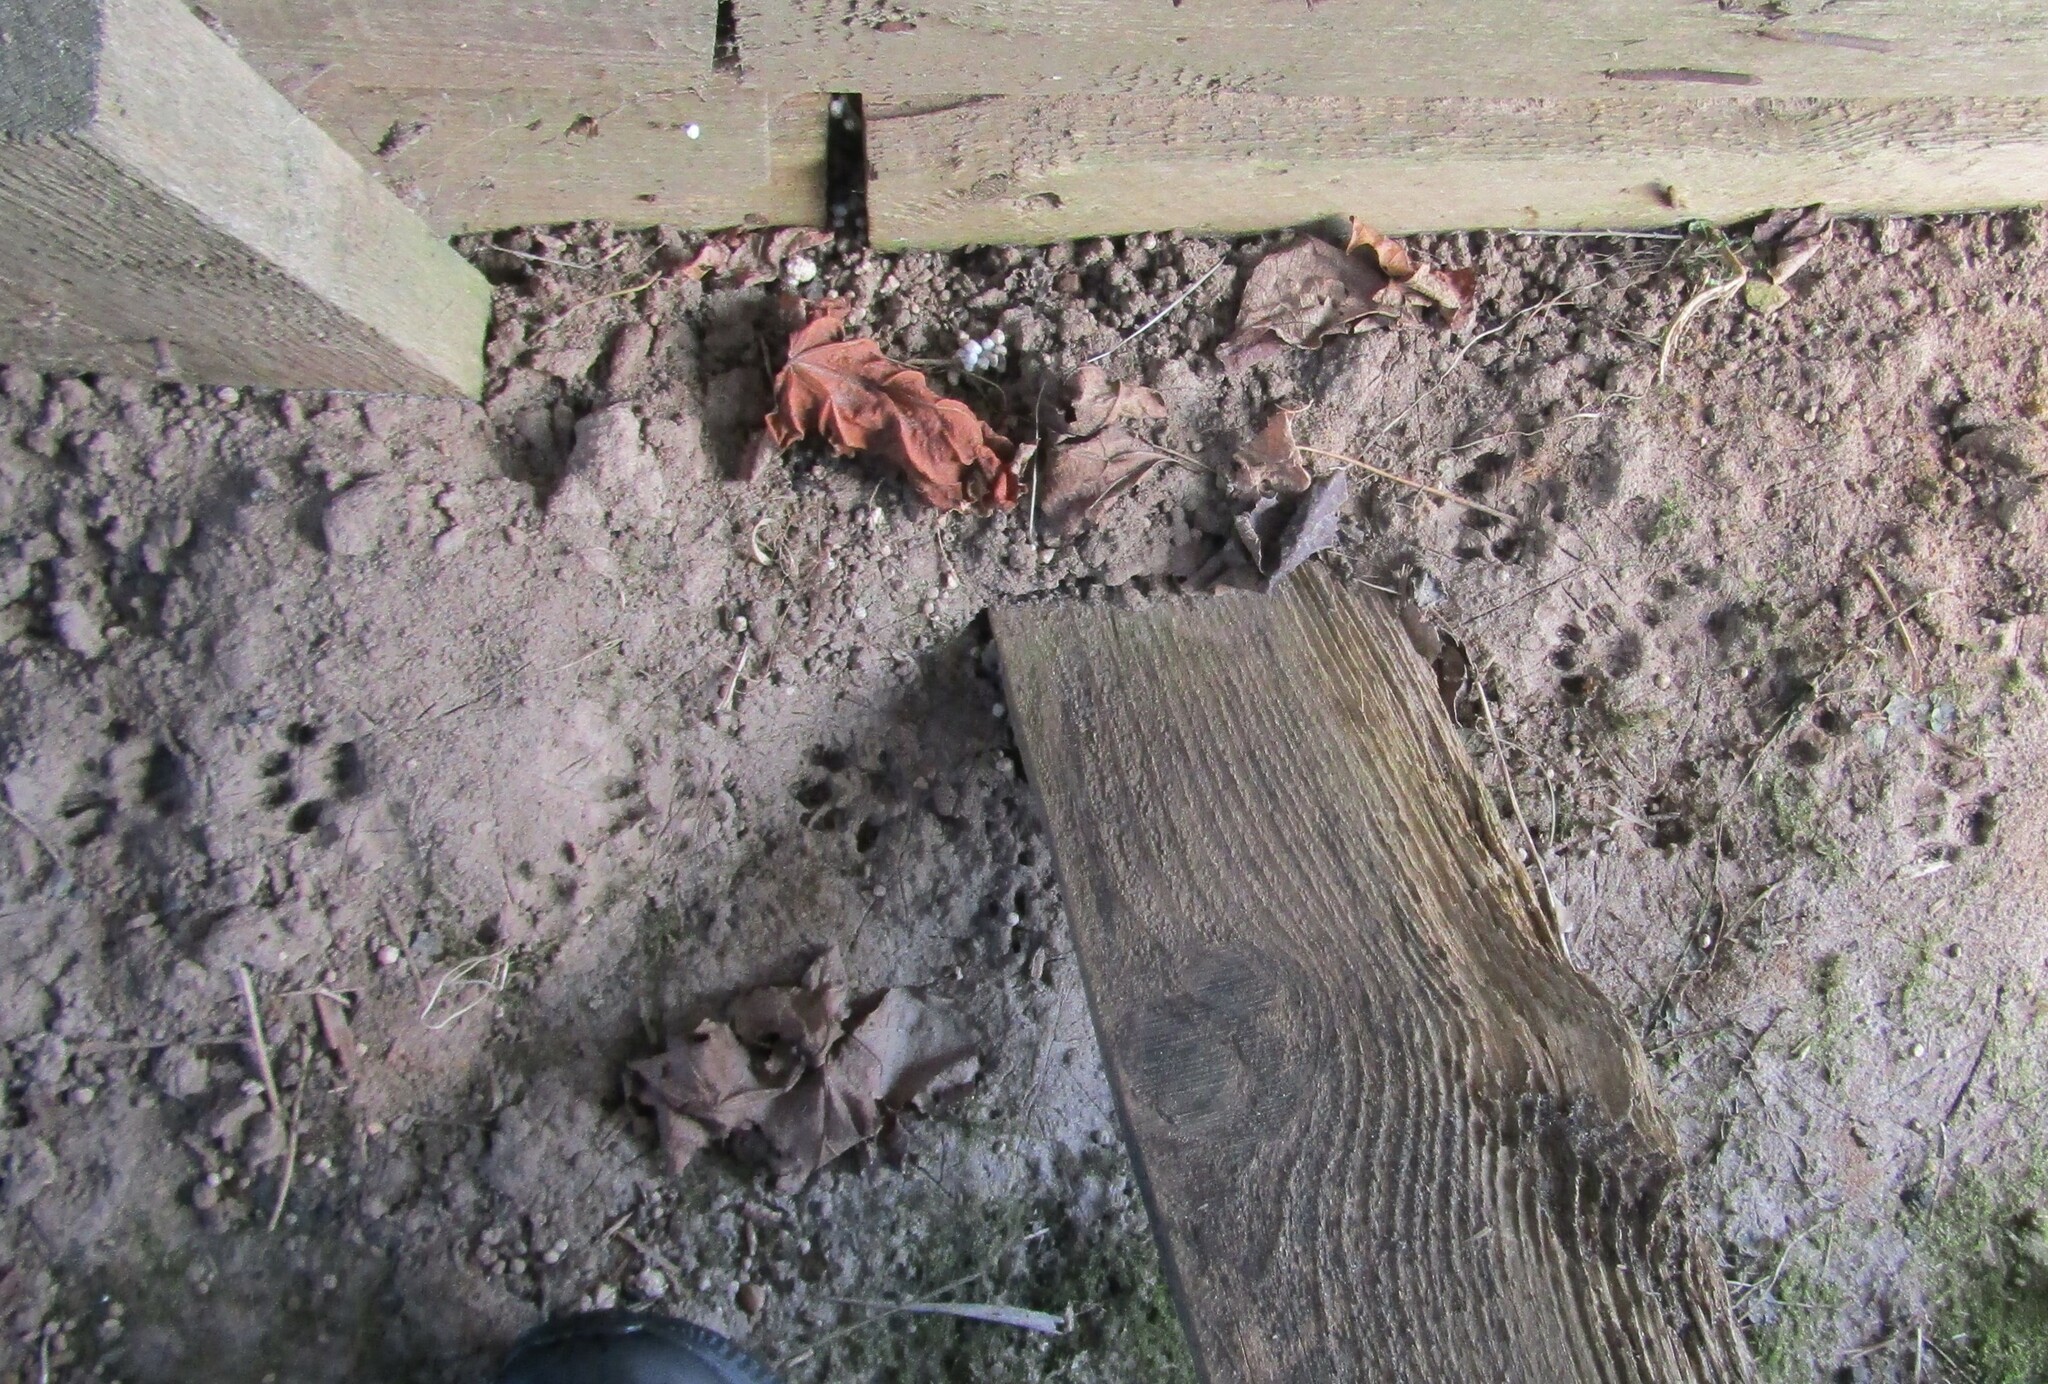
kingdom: Animalia
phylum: Chordata
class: Mammalia
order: Carnivora
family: Felidae
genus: Felis
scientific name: Felis catus
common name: Domestic cat
